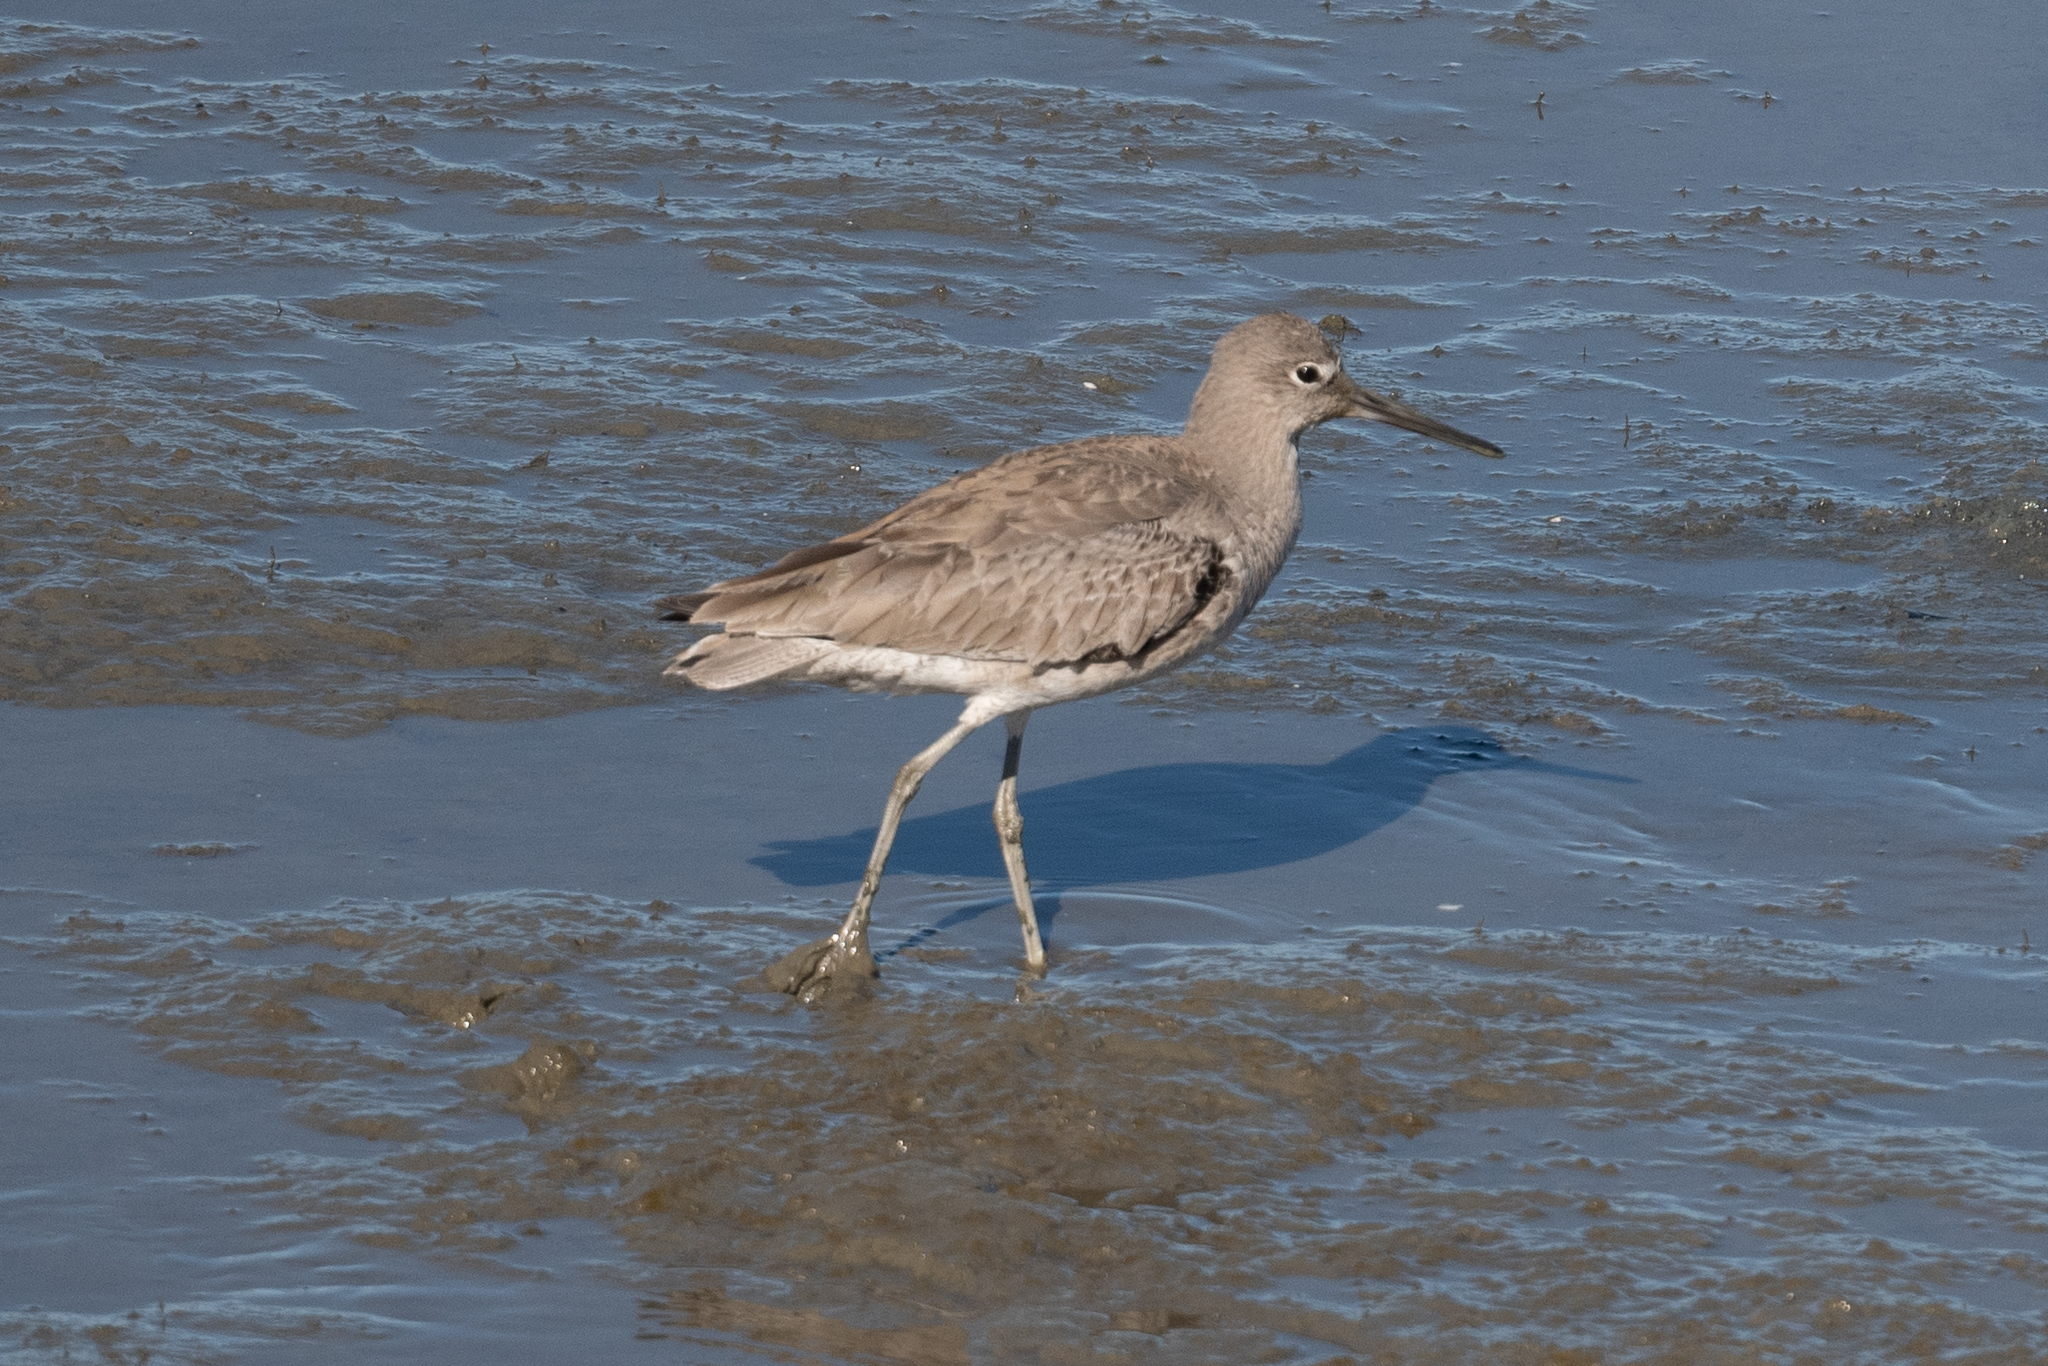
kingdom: Animalia
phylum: Chordata
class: Aves
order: Charadriiformes
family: Scolopacidae
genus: Tringa
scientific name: Tringa semipalmata
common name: Willet
